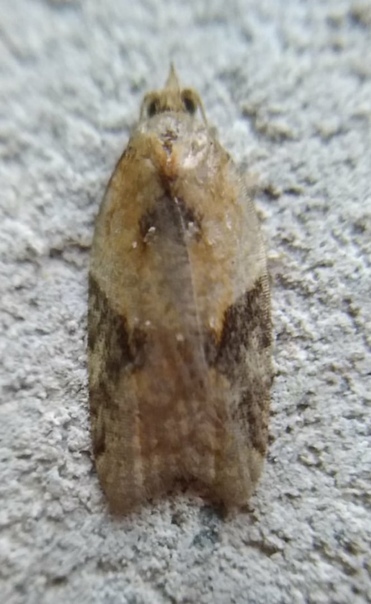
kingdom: Animalia
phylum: Arthropoda
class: Insecta
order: Lepidoptera
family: Tortricidae
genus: Acleris
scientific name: Acleris laterana
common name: Dark-triangle button
